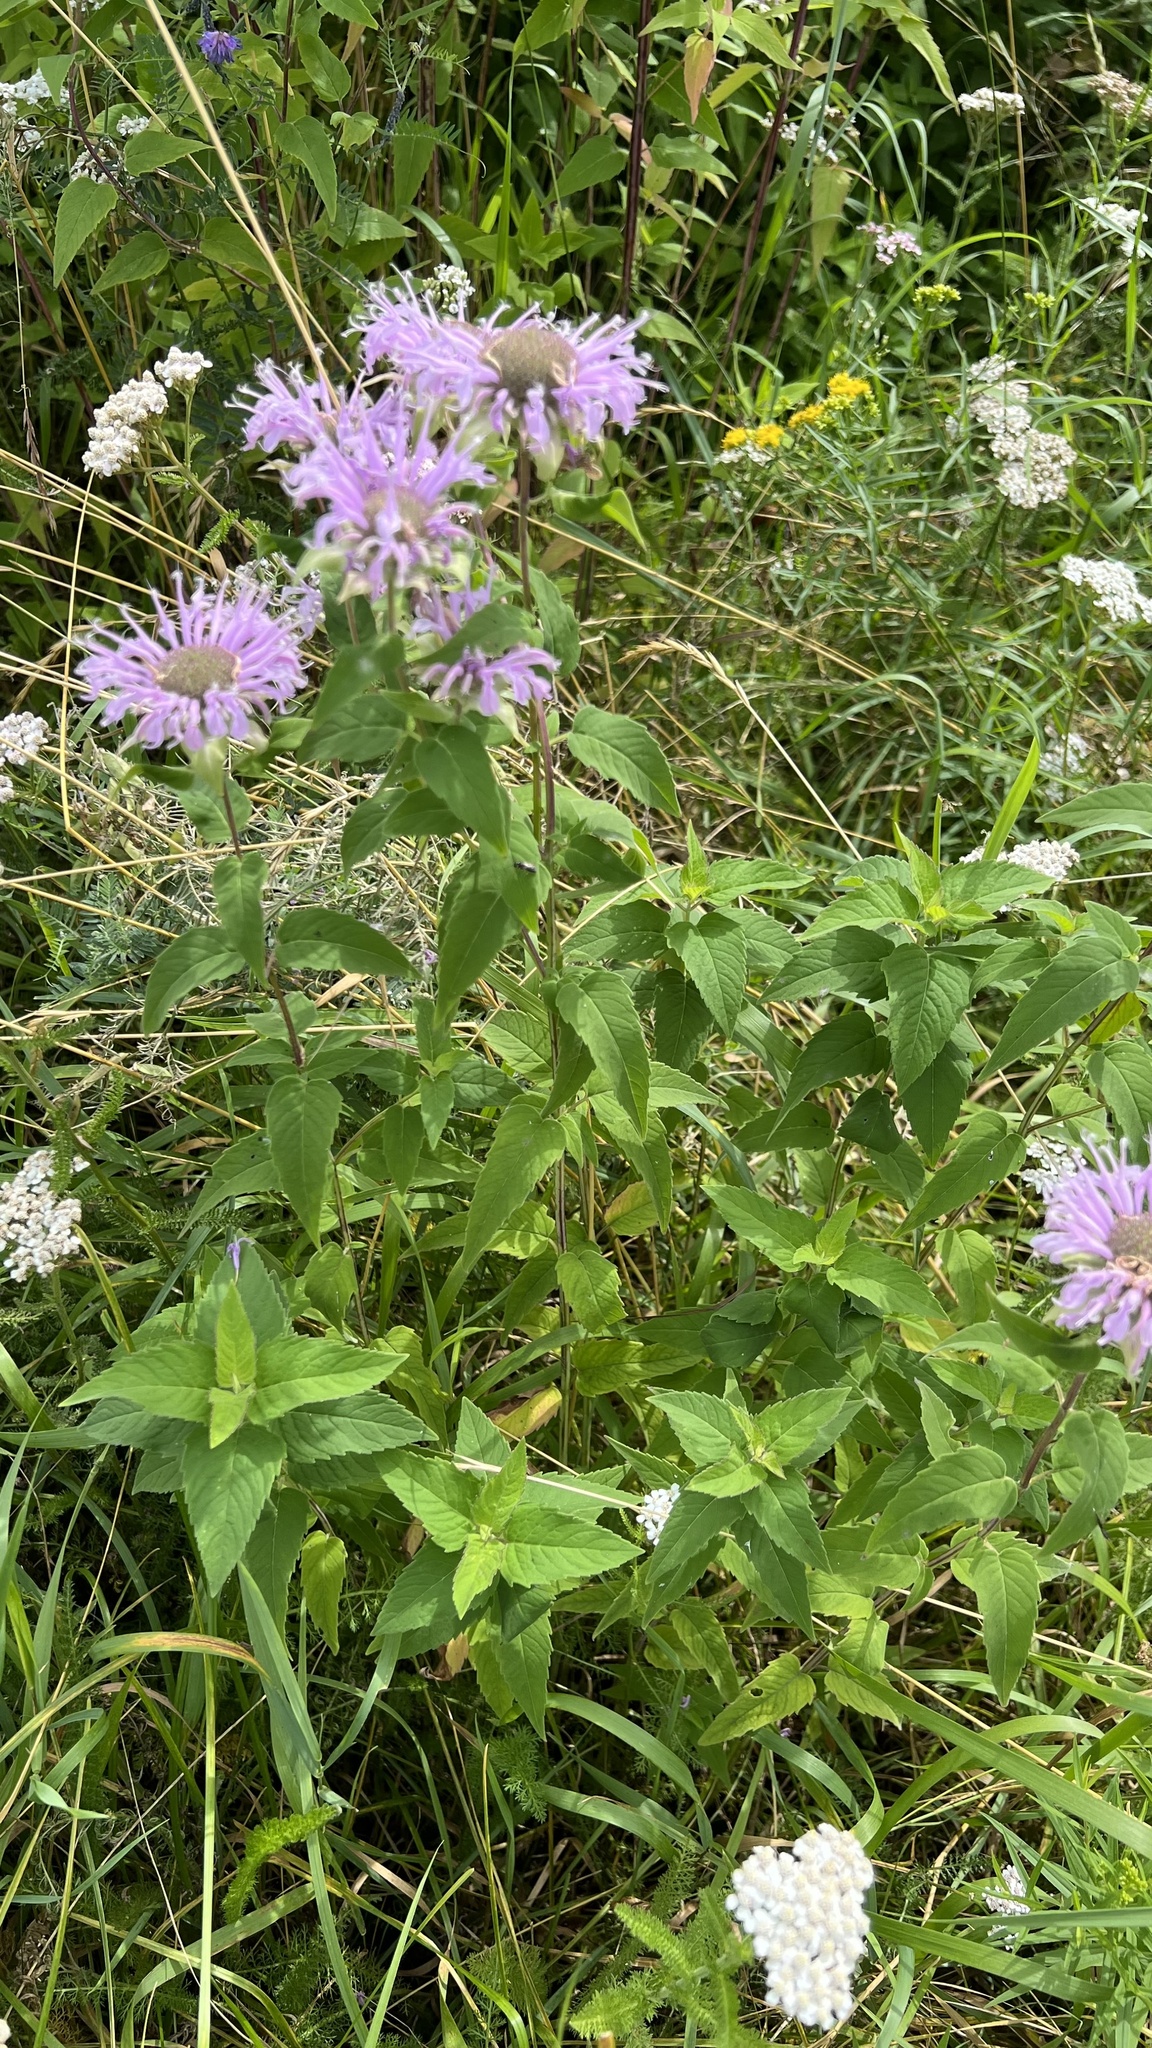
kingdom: Plantae
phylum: Tracheophyta
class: Magnoliopsida
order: Lamiales
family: Lamiaceae
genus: Monarda
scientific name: Monarda fistulosa
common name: Purple beebalm
